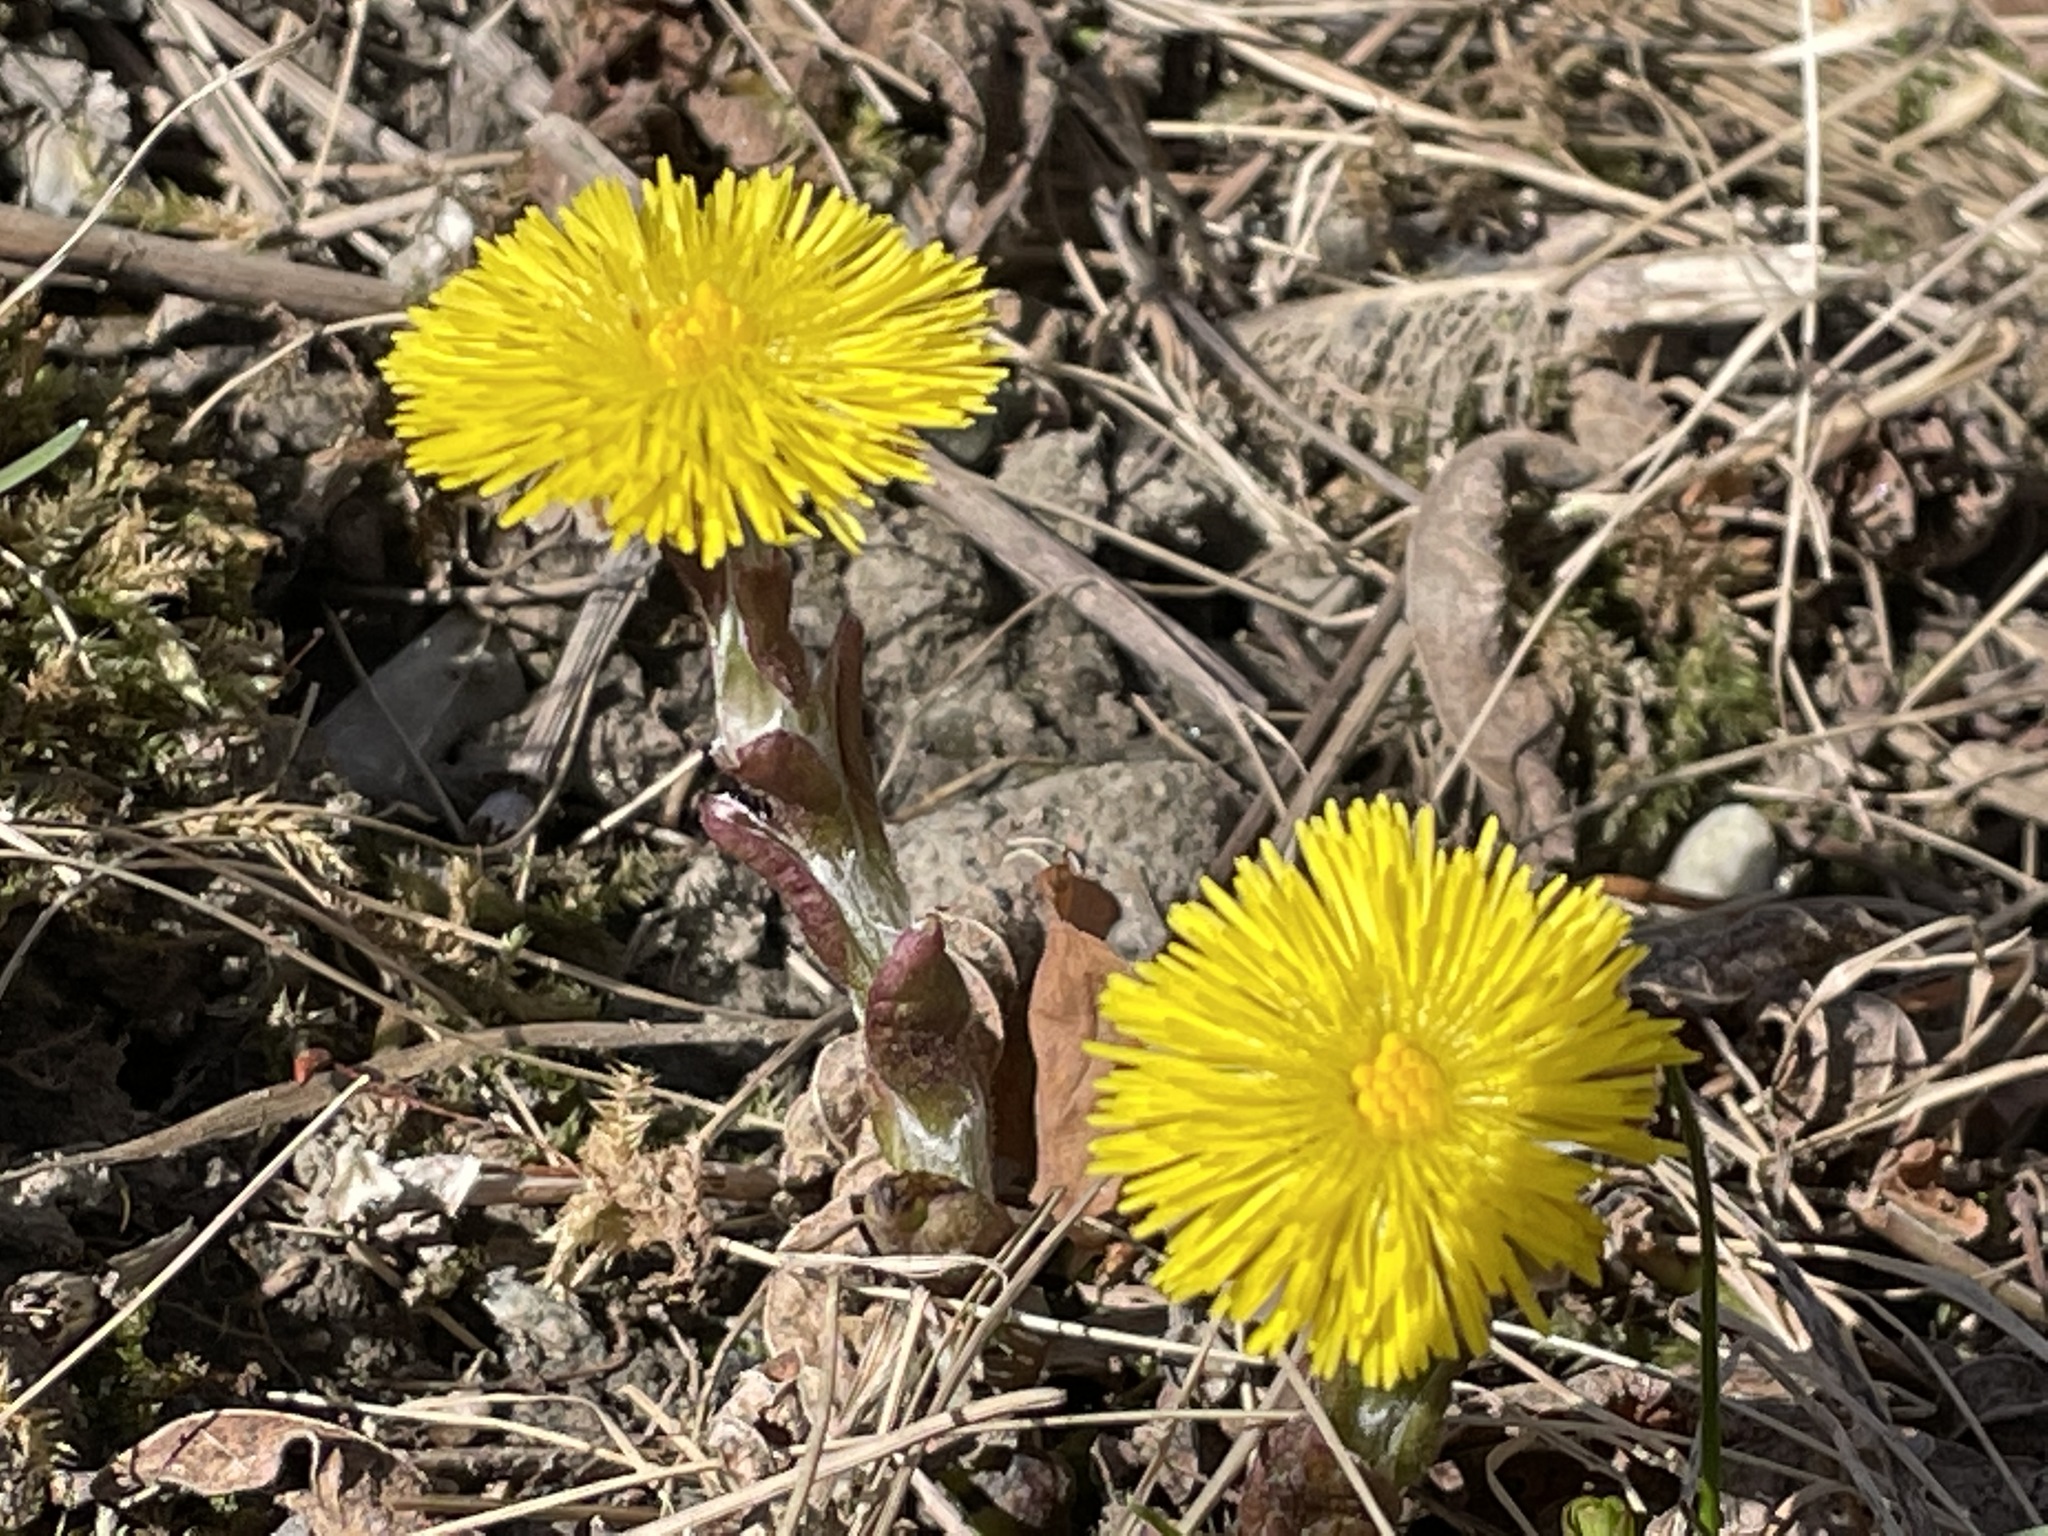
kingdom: Plantae
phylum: Tracheophyta
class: Magnoliopsida
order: Asterales
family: Asteraceae
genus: Tussilago
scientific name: Tussilago farfara
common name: Coltsfoot
